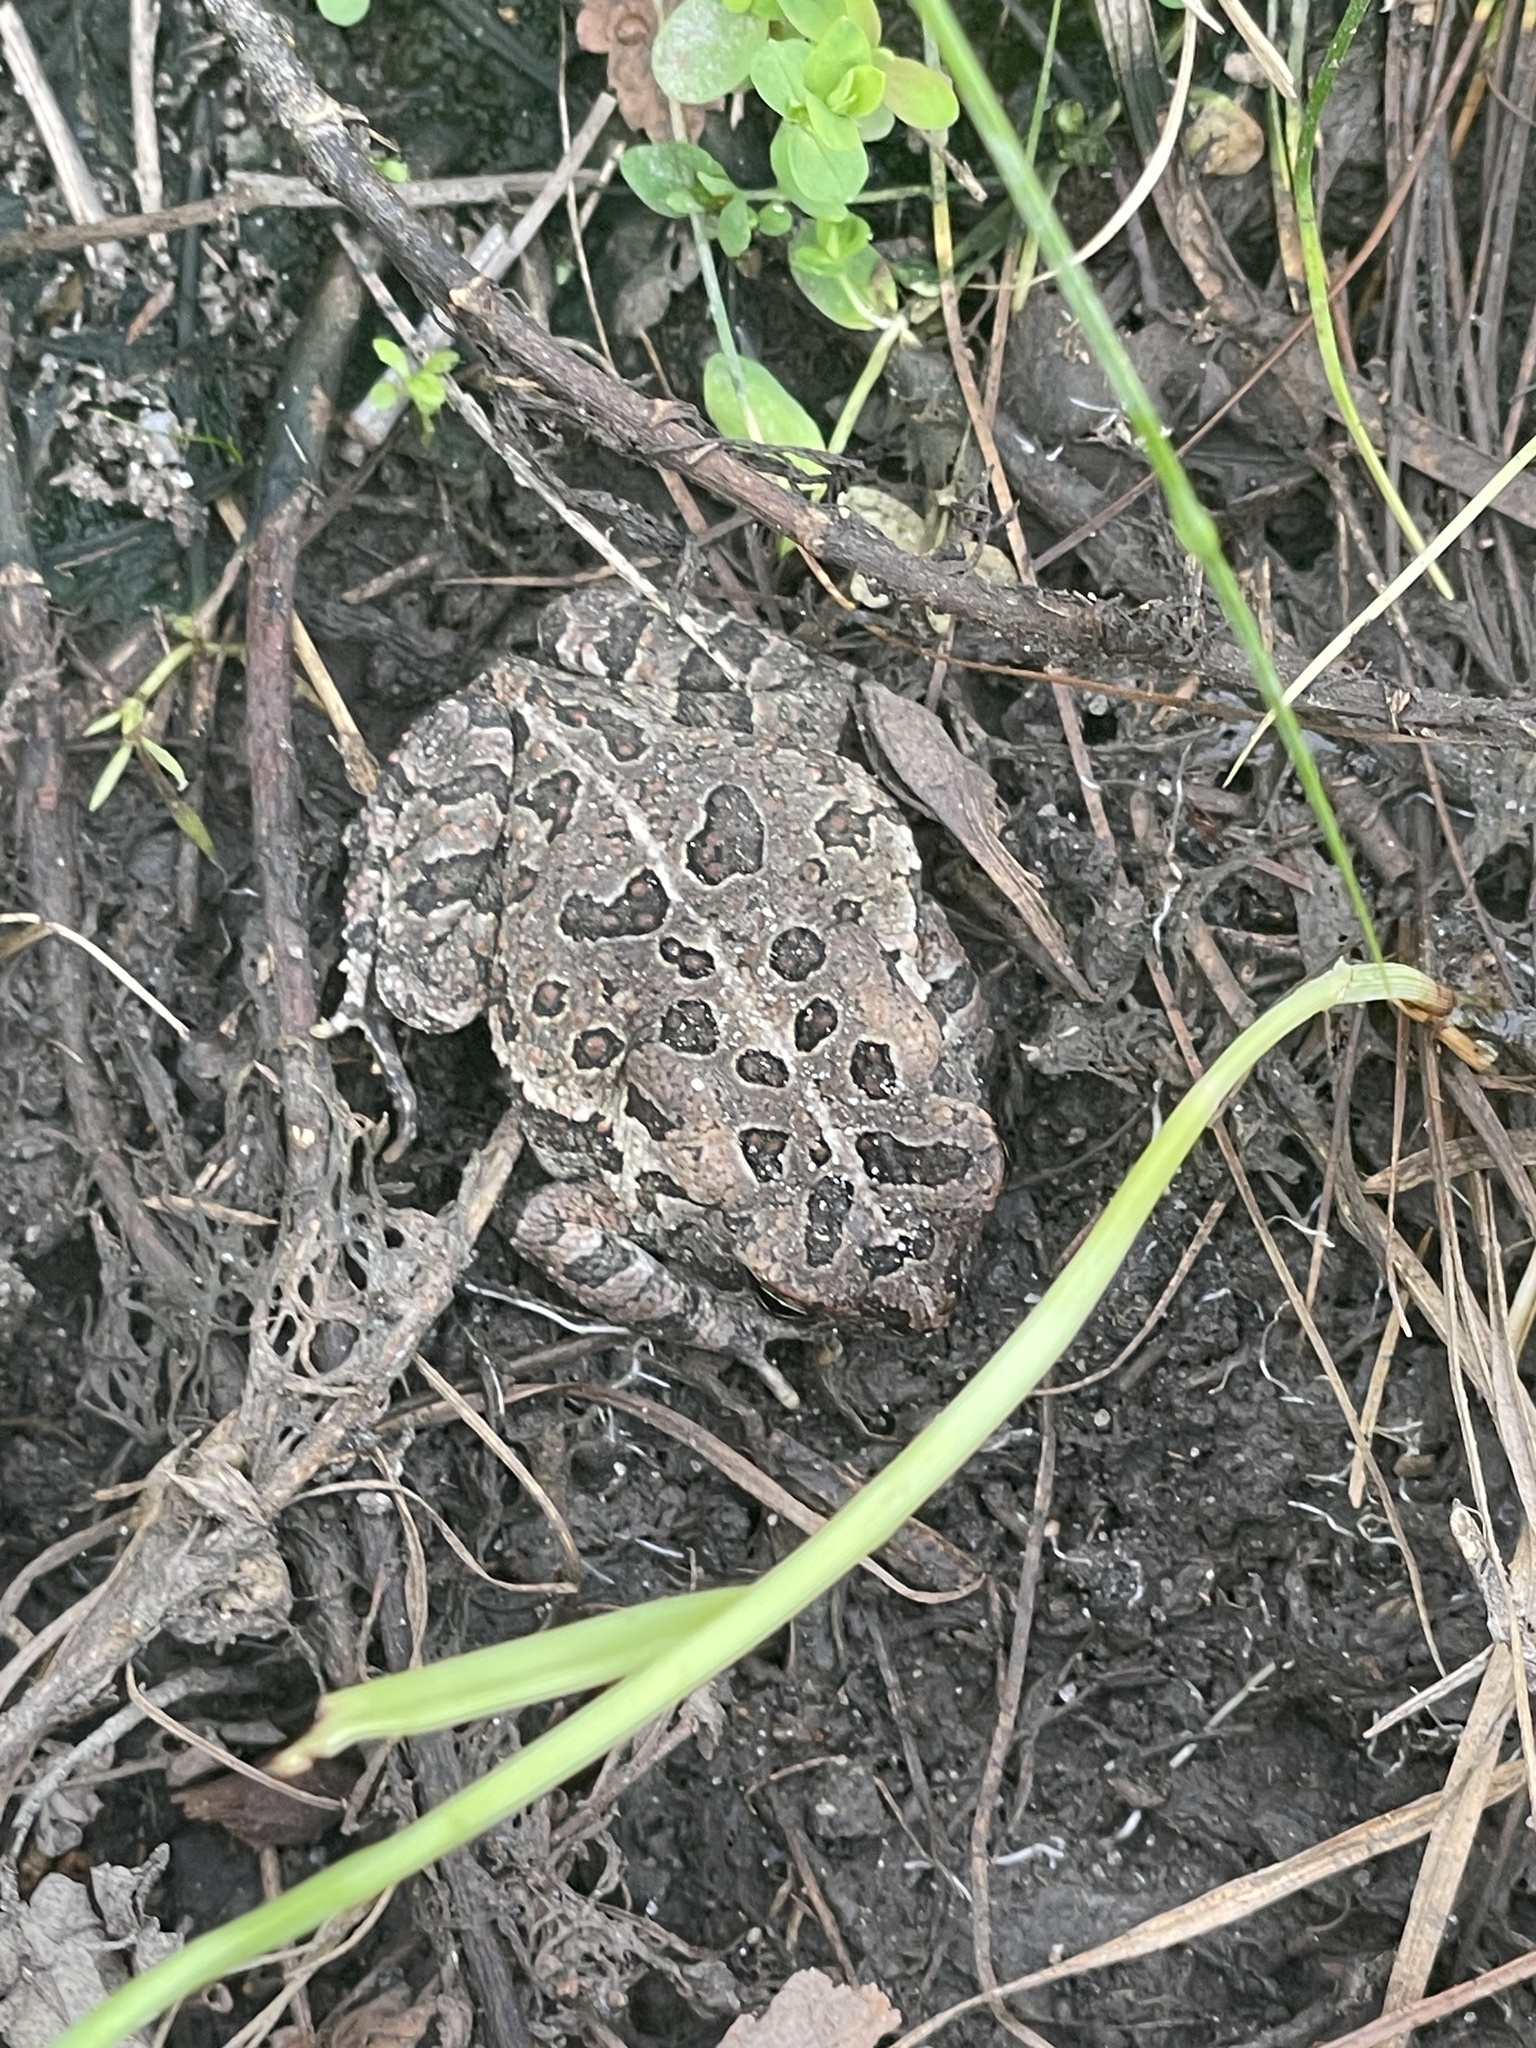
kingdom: Animalia
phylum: Chordata
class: Amphibia
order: Anura
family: Bufonidae
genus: Anaxyrus
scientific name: Anaxyrus fowleri
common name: Fowler's toad
